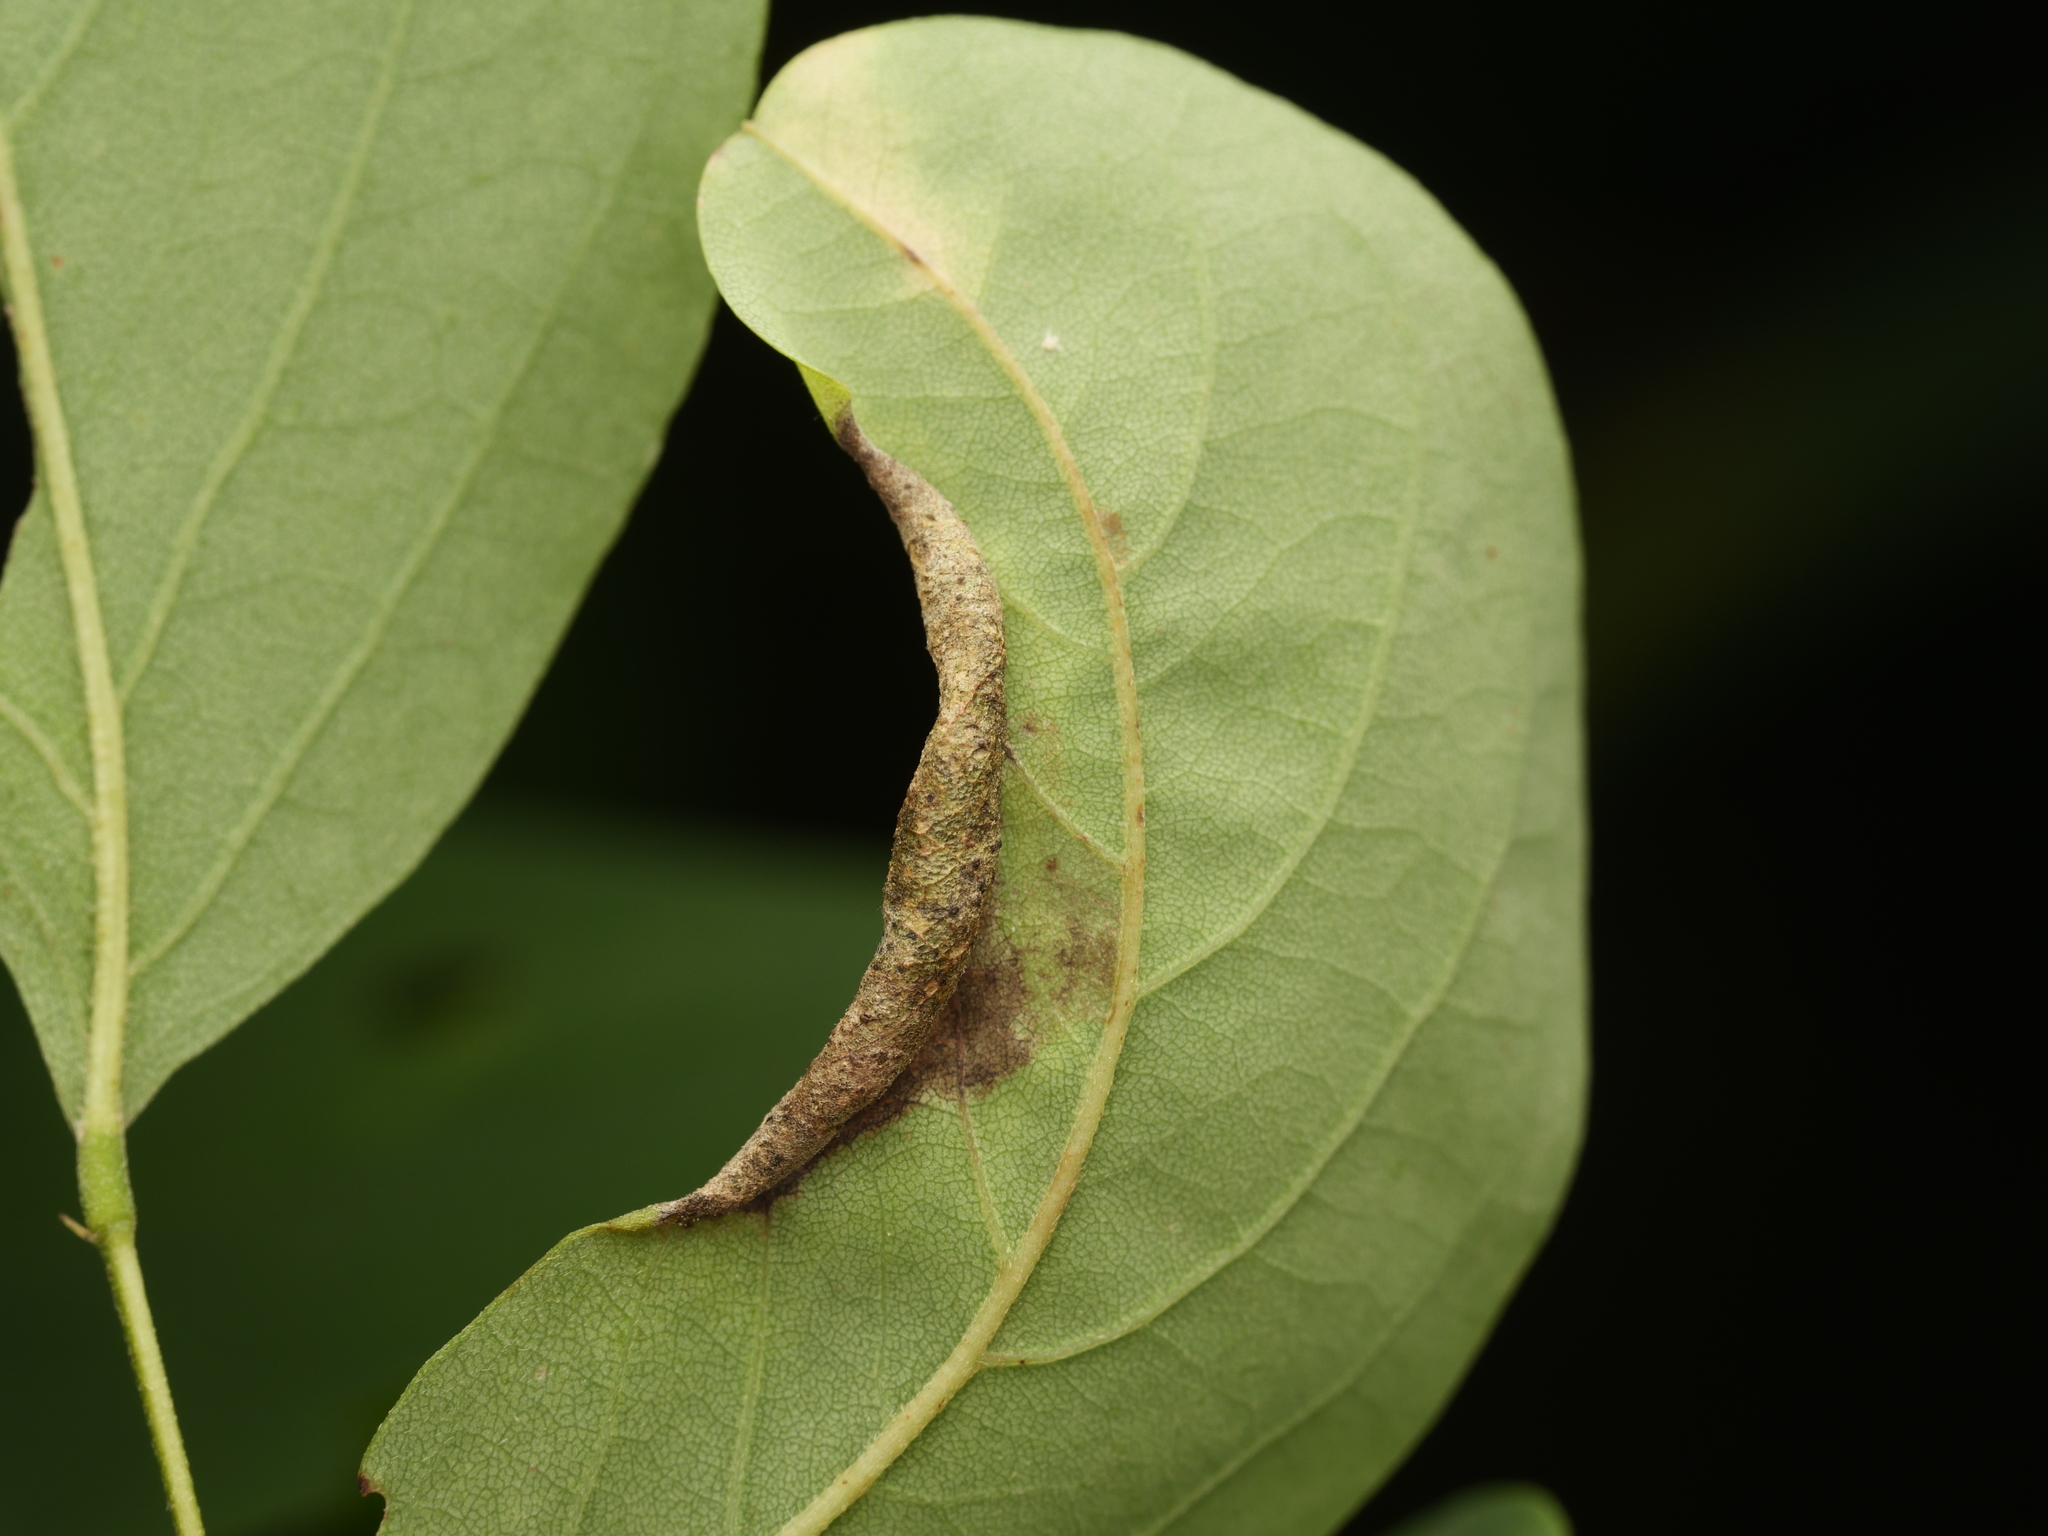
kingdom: Animalia
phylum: Arthropoda
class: Insecta
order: Diptera
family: Cecidomyiidae
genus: Obolodiplosis
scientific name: Obolodiplosis robiniae
